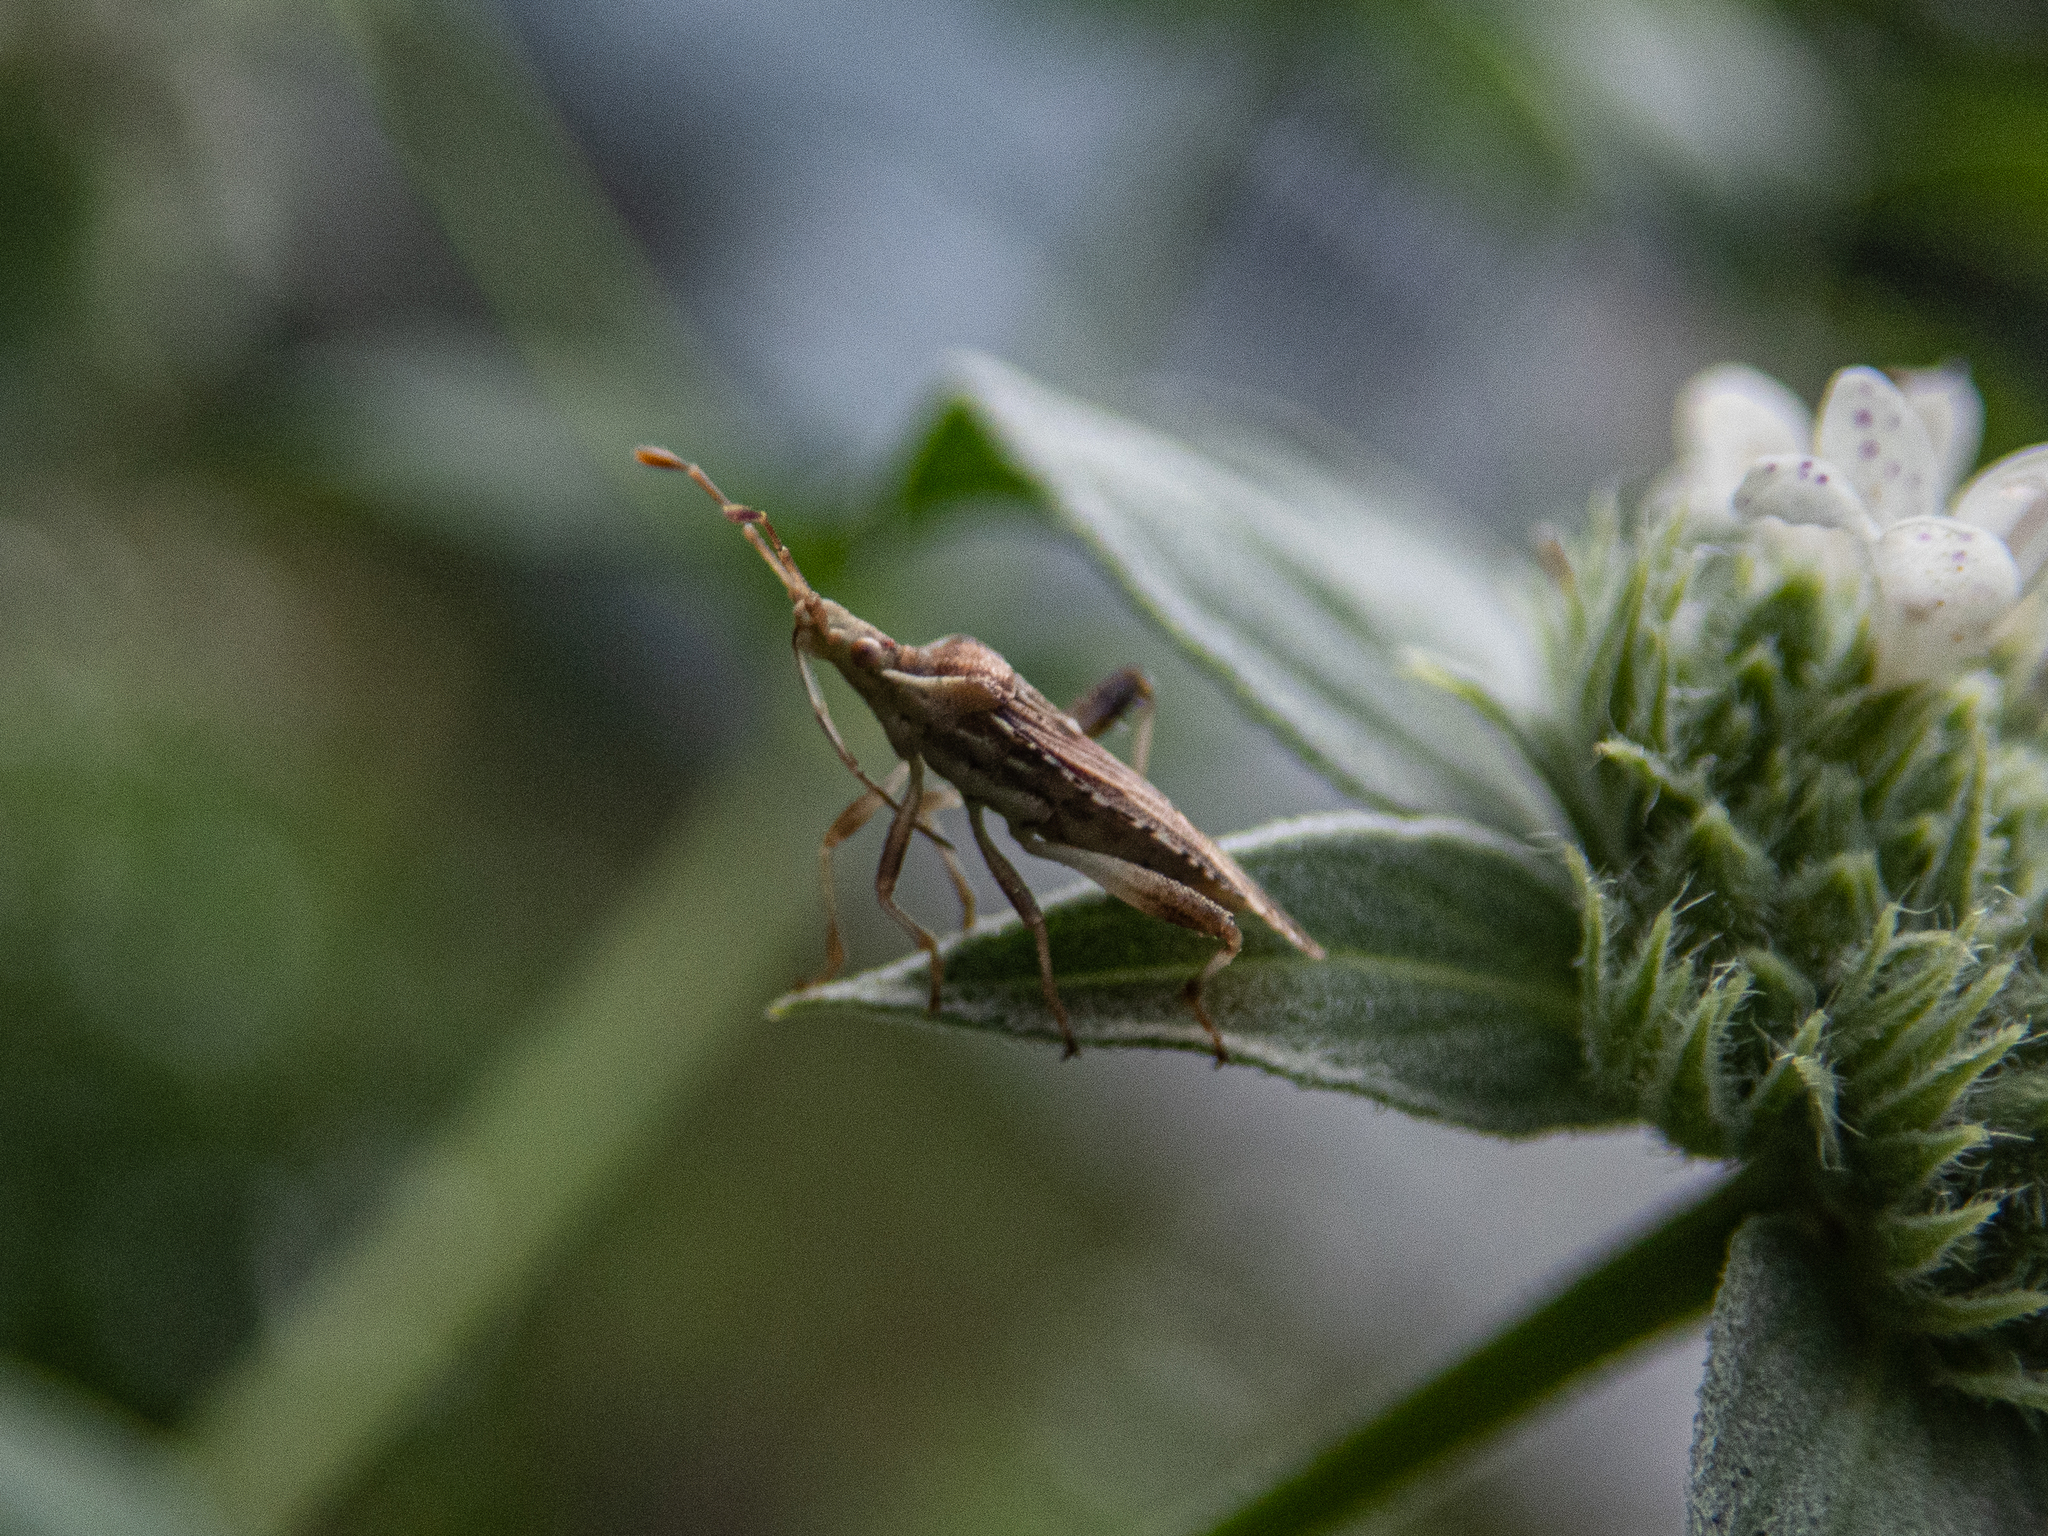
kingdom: Animalia
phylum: Arthropoda
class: Insecta
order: Hemiptera
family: Rhopalidae
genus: Harmostes
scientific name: Harmostes fraterculus
